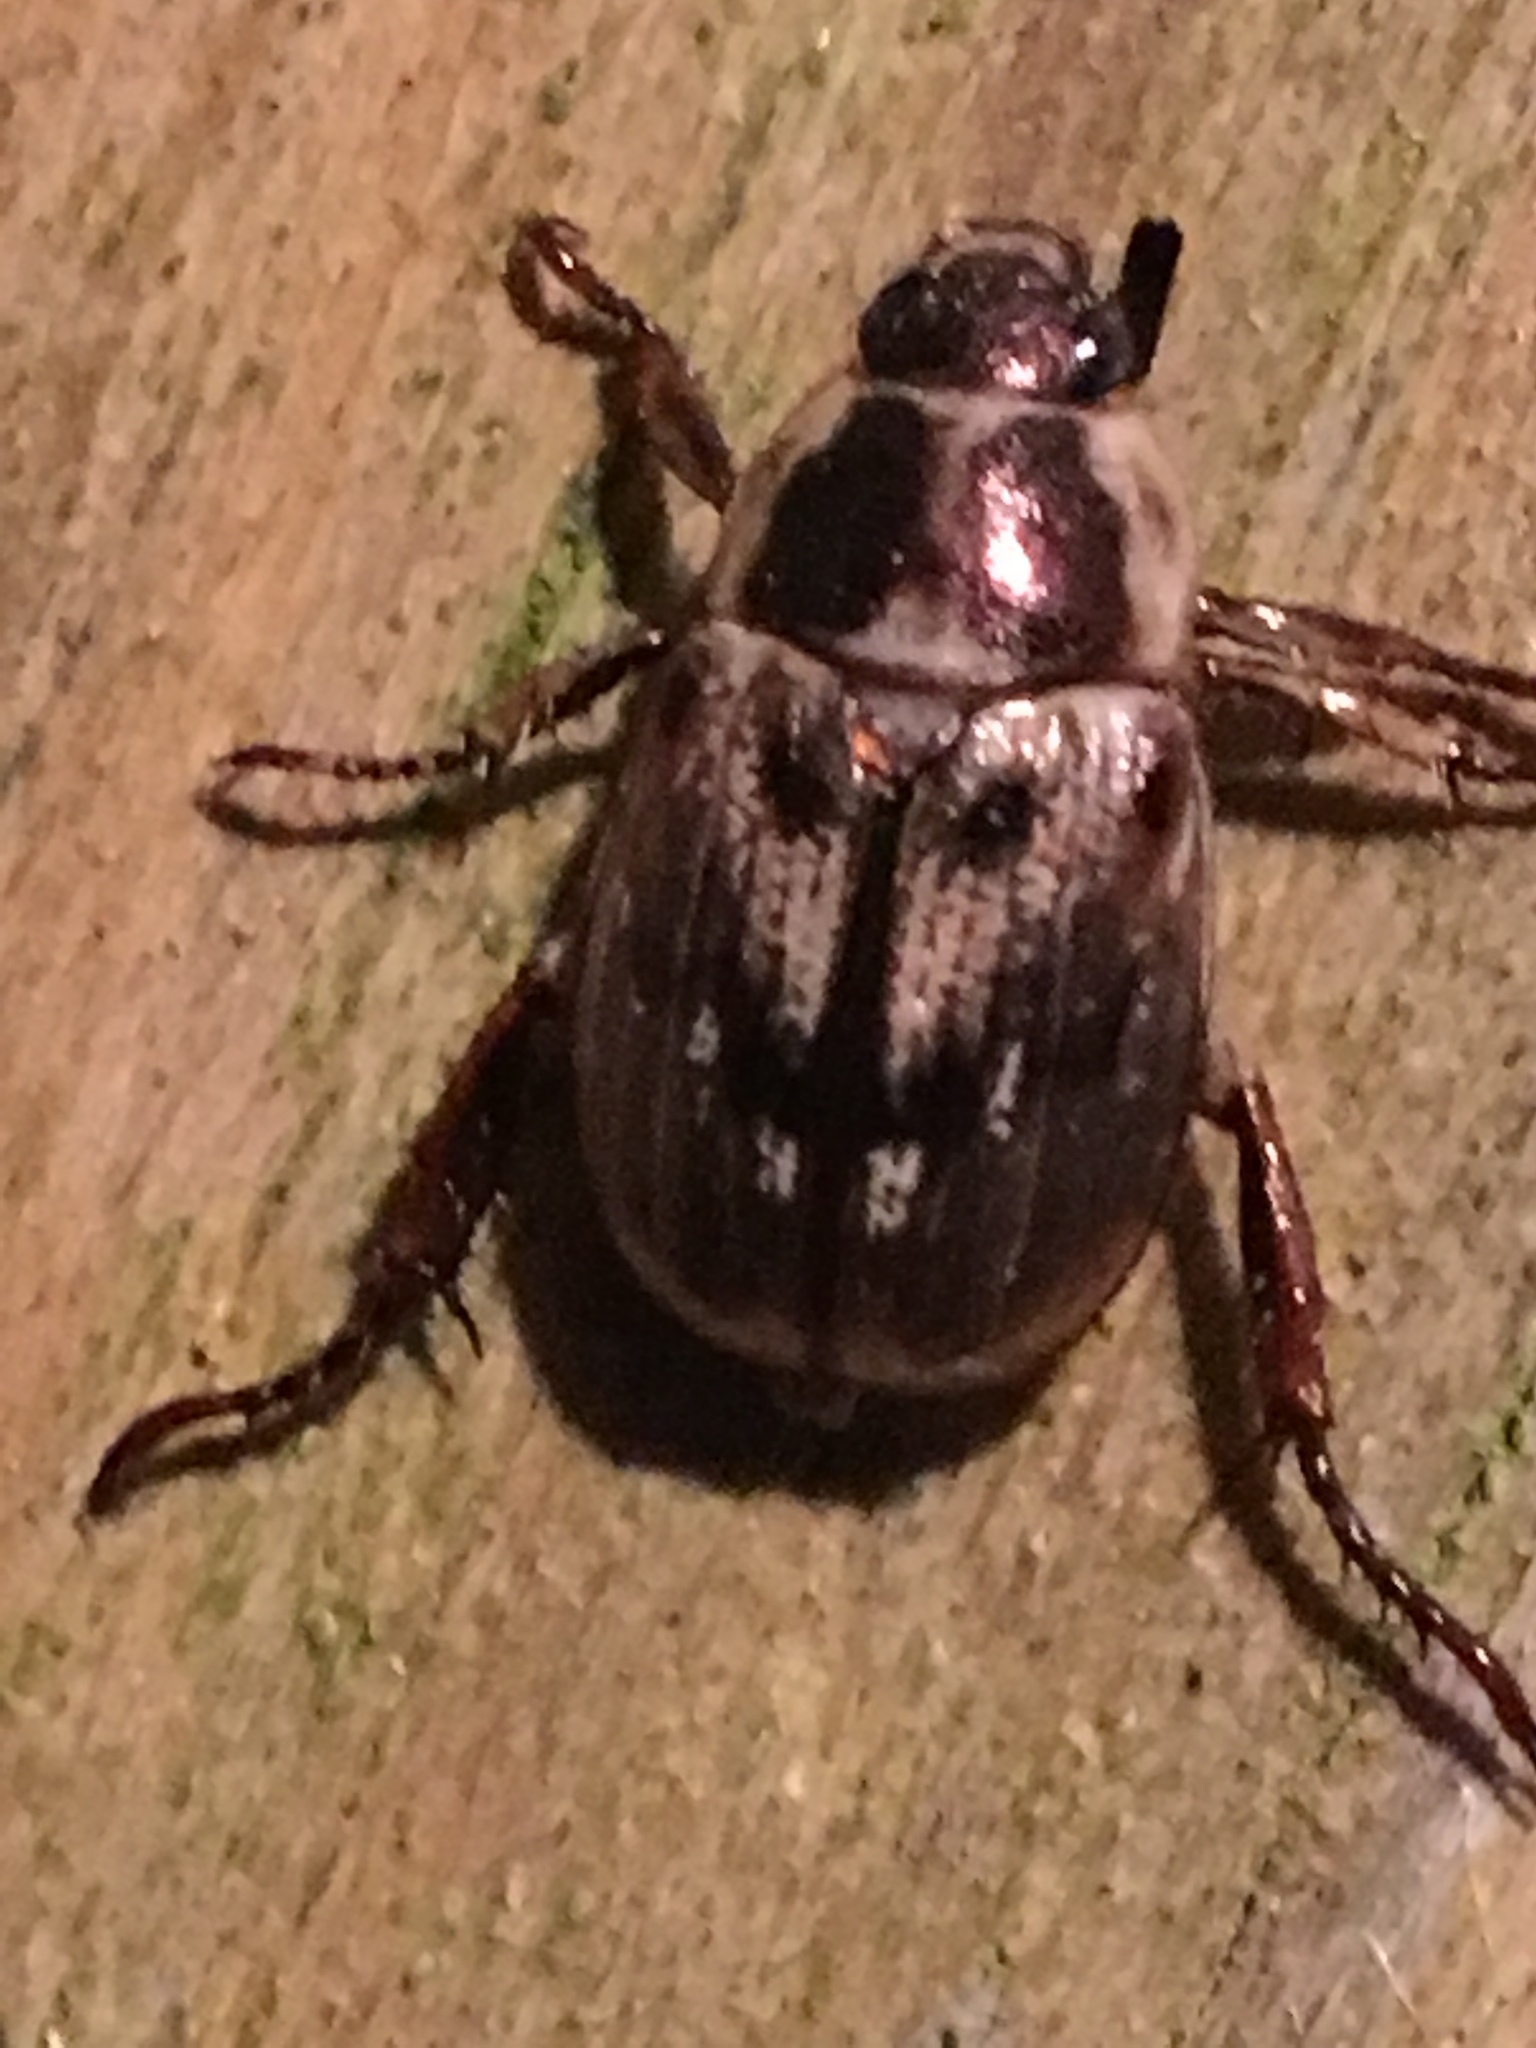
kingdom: Animalia
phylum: Arthropoda
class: Insecta
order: Coleoptera
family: Scarabaeidae
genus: Exomala
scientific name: Exomala orientalis
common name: Oriental beetle
